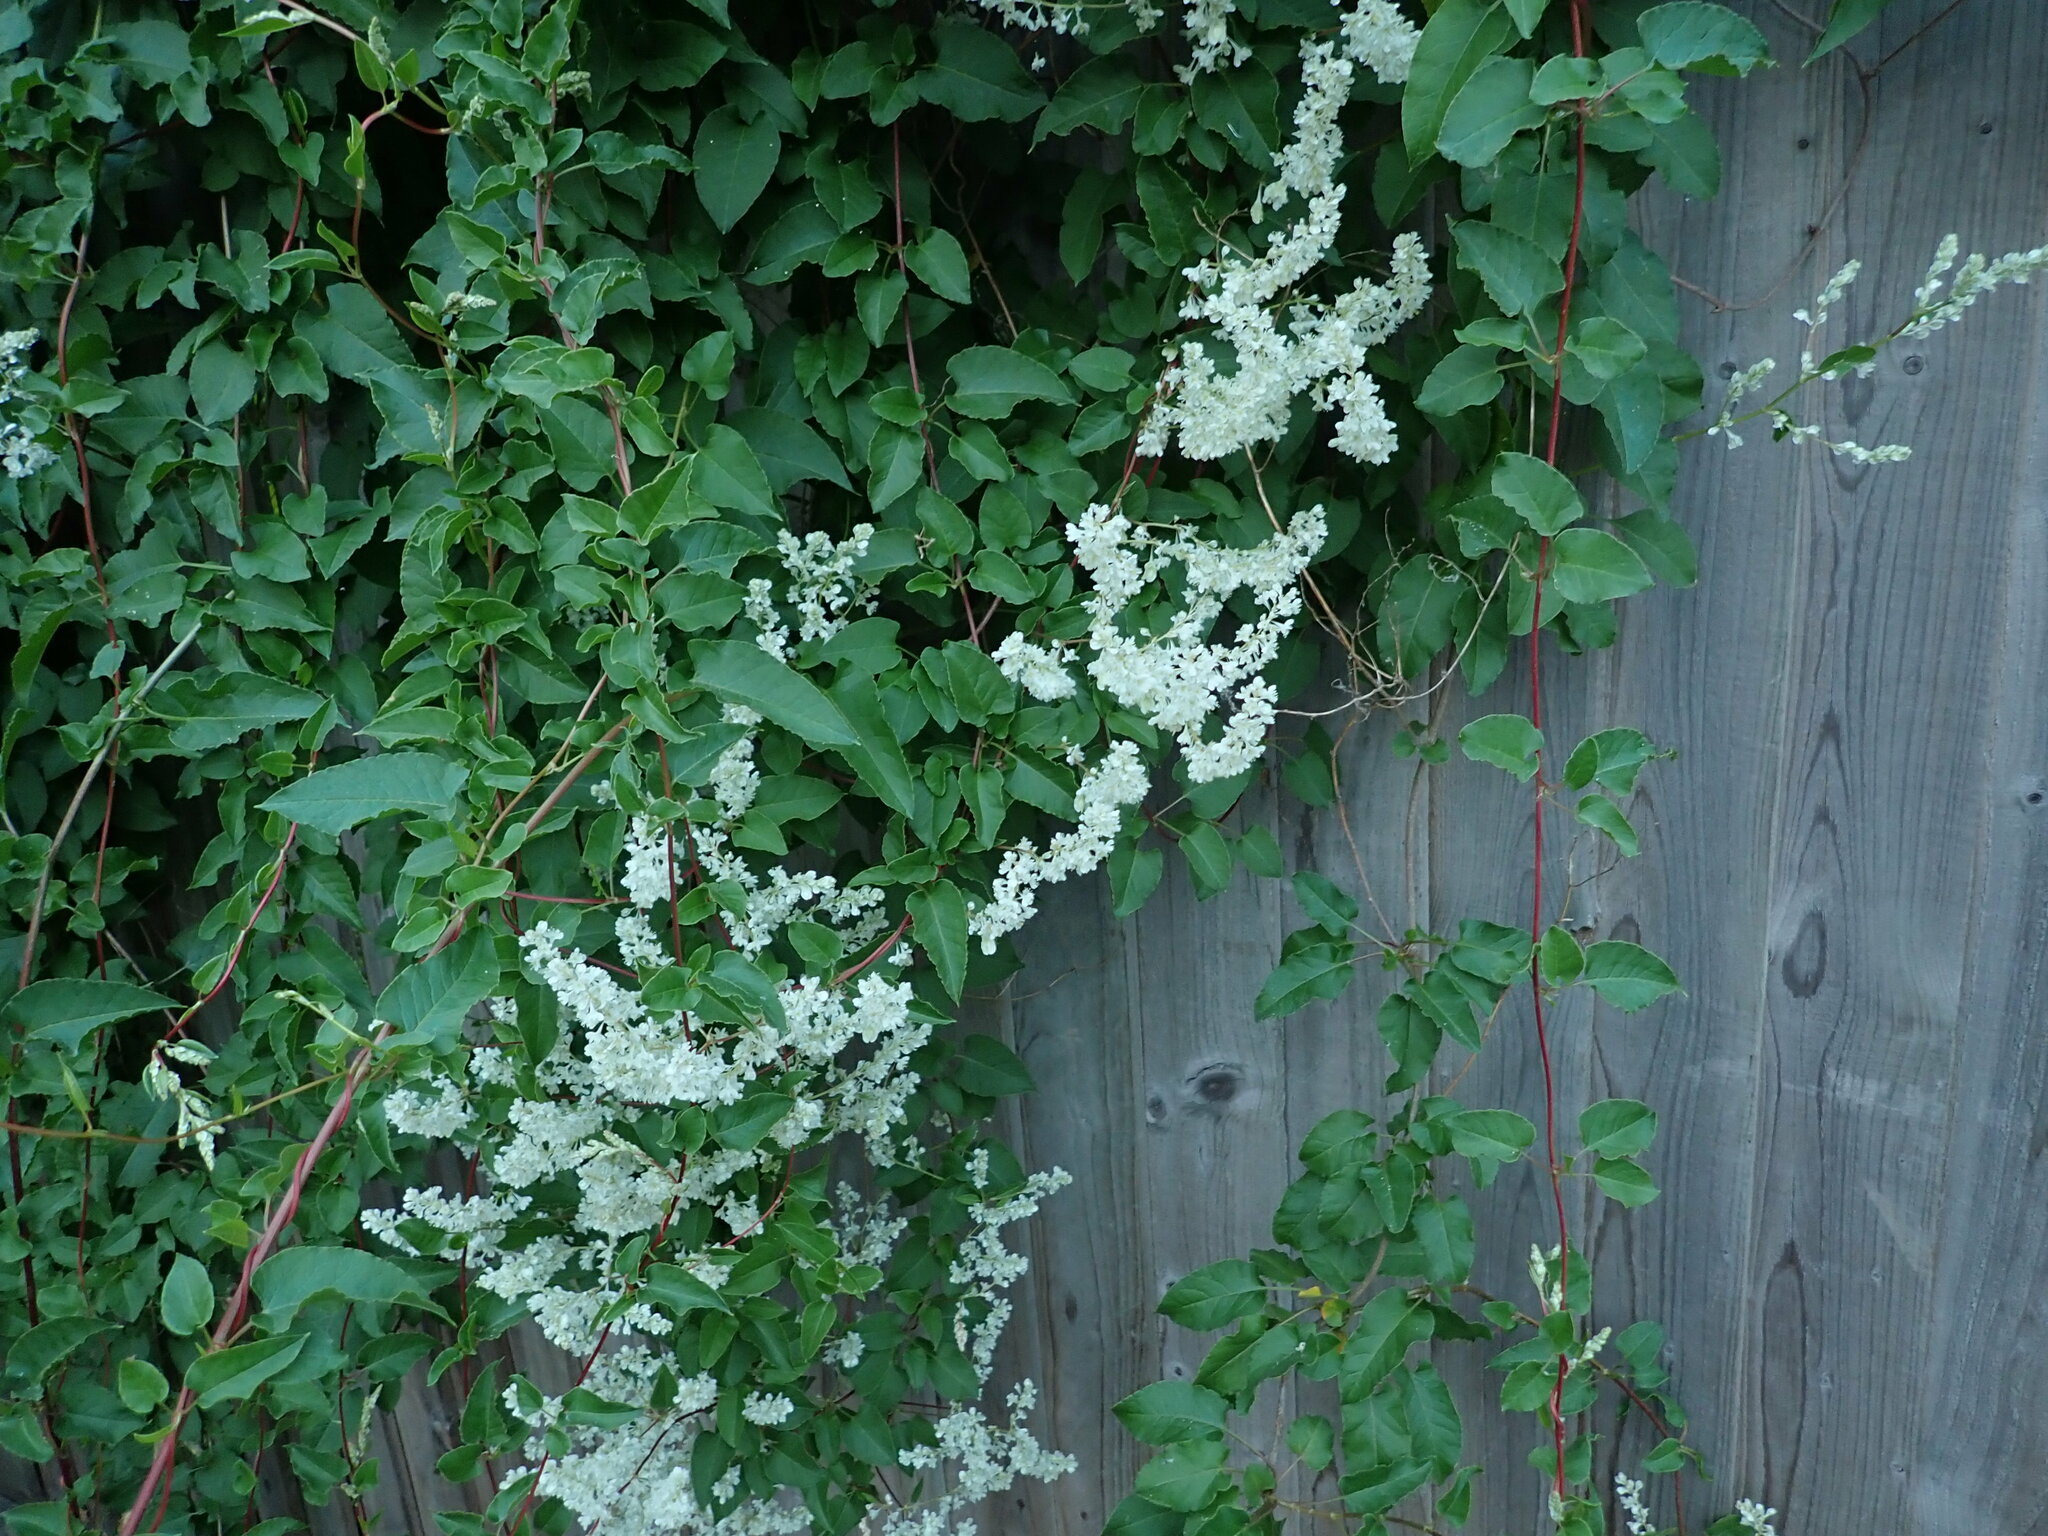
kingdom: Plantae
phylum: Tracheophyta
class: Magnoliopsida
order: Caryophyllales
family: Polygonaceae
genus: Fallopia
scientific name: Fallopia baldschuanica
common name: Russian-vine
